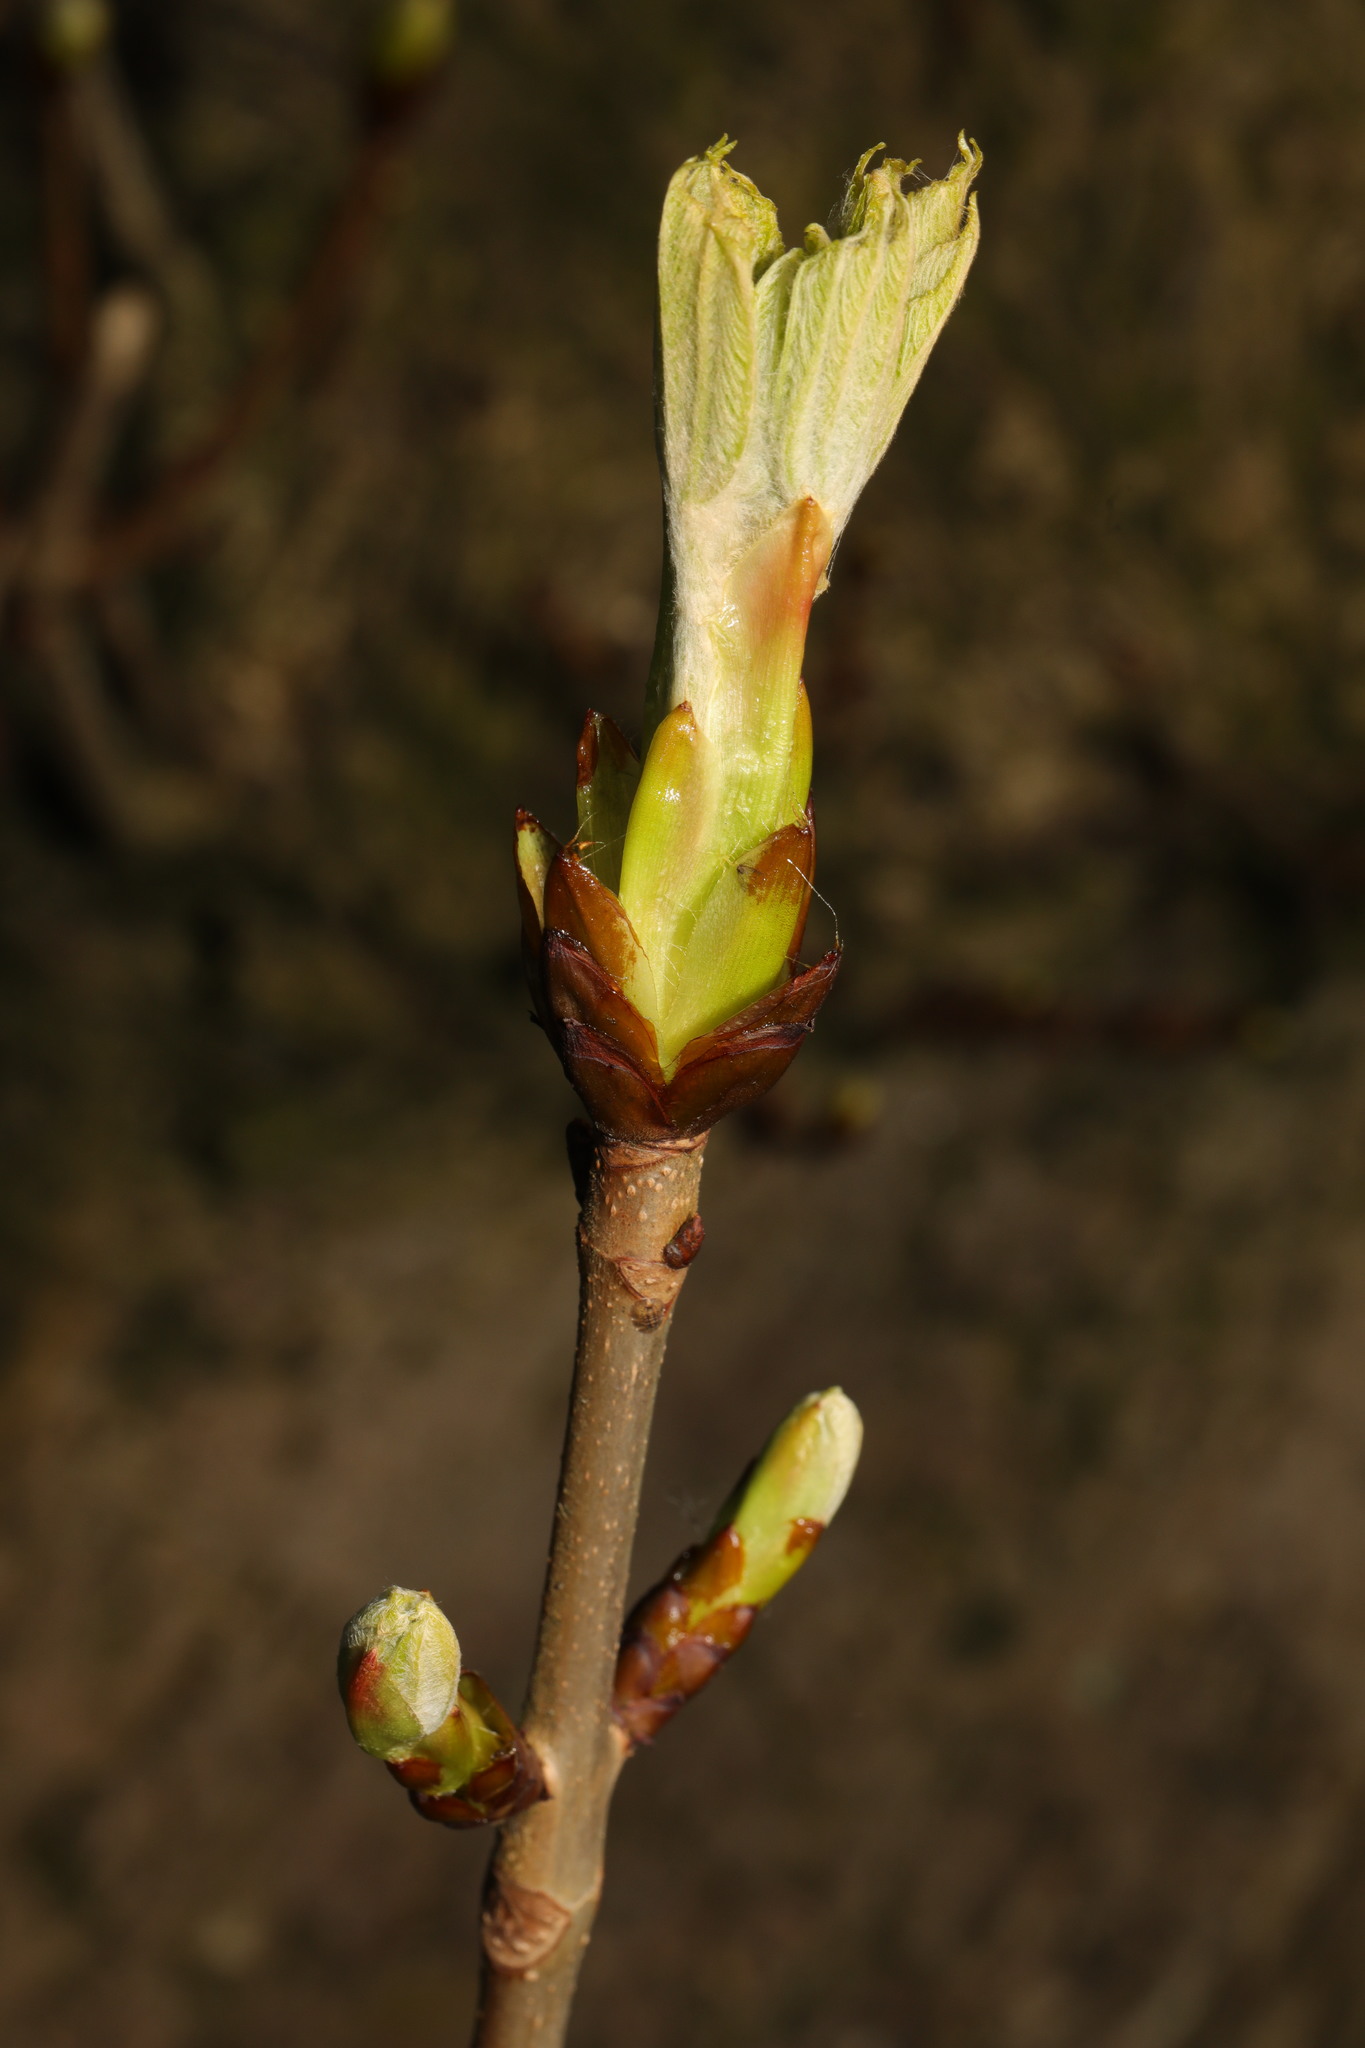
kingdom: Plantae
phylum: Tracheophyta
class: Magnoliopsida
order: Sapindales
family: Sapindaceae
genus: Aesculus
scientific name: Aesculus hippocastanum
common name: Horse-chestnut
